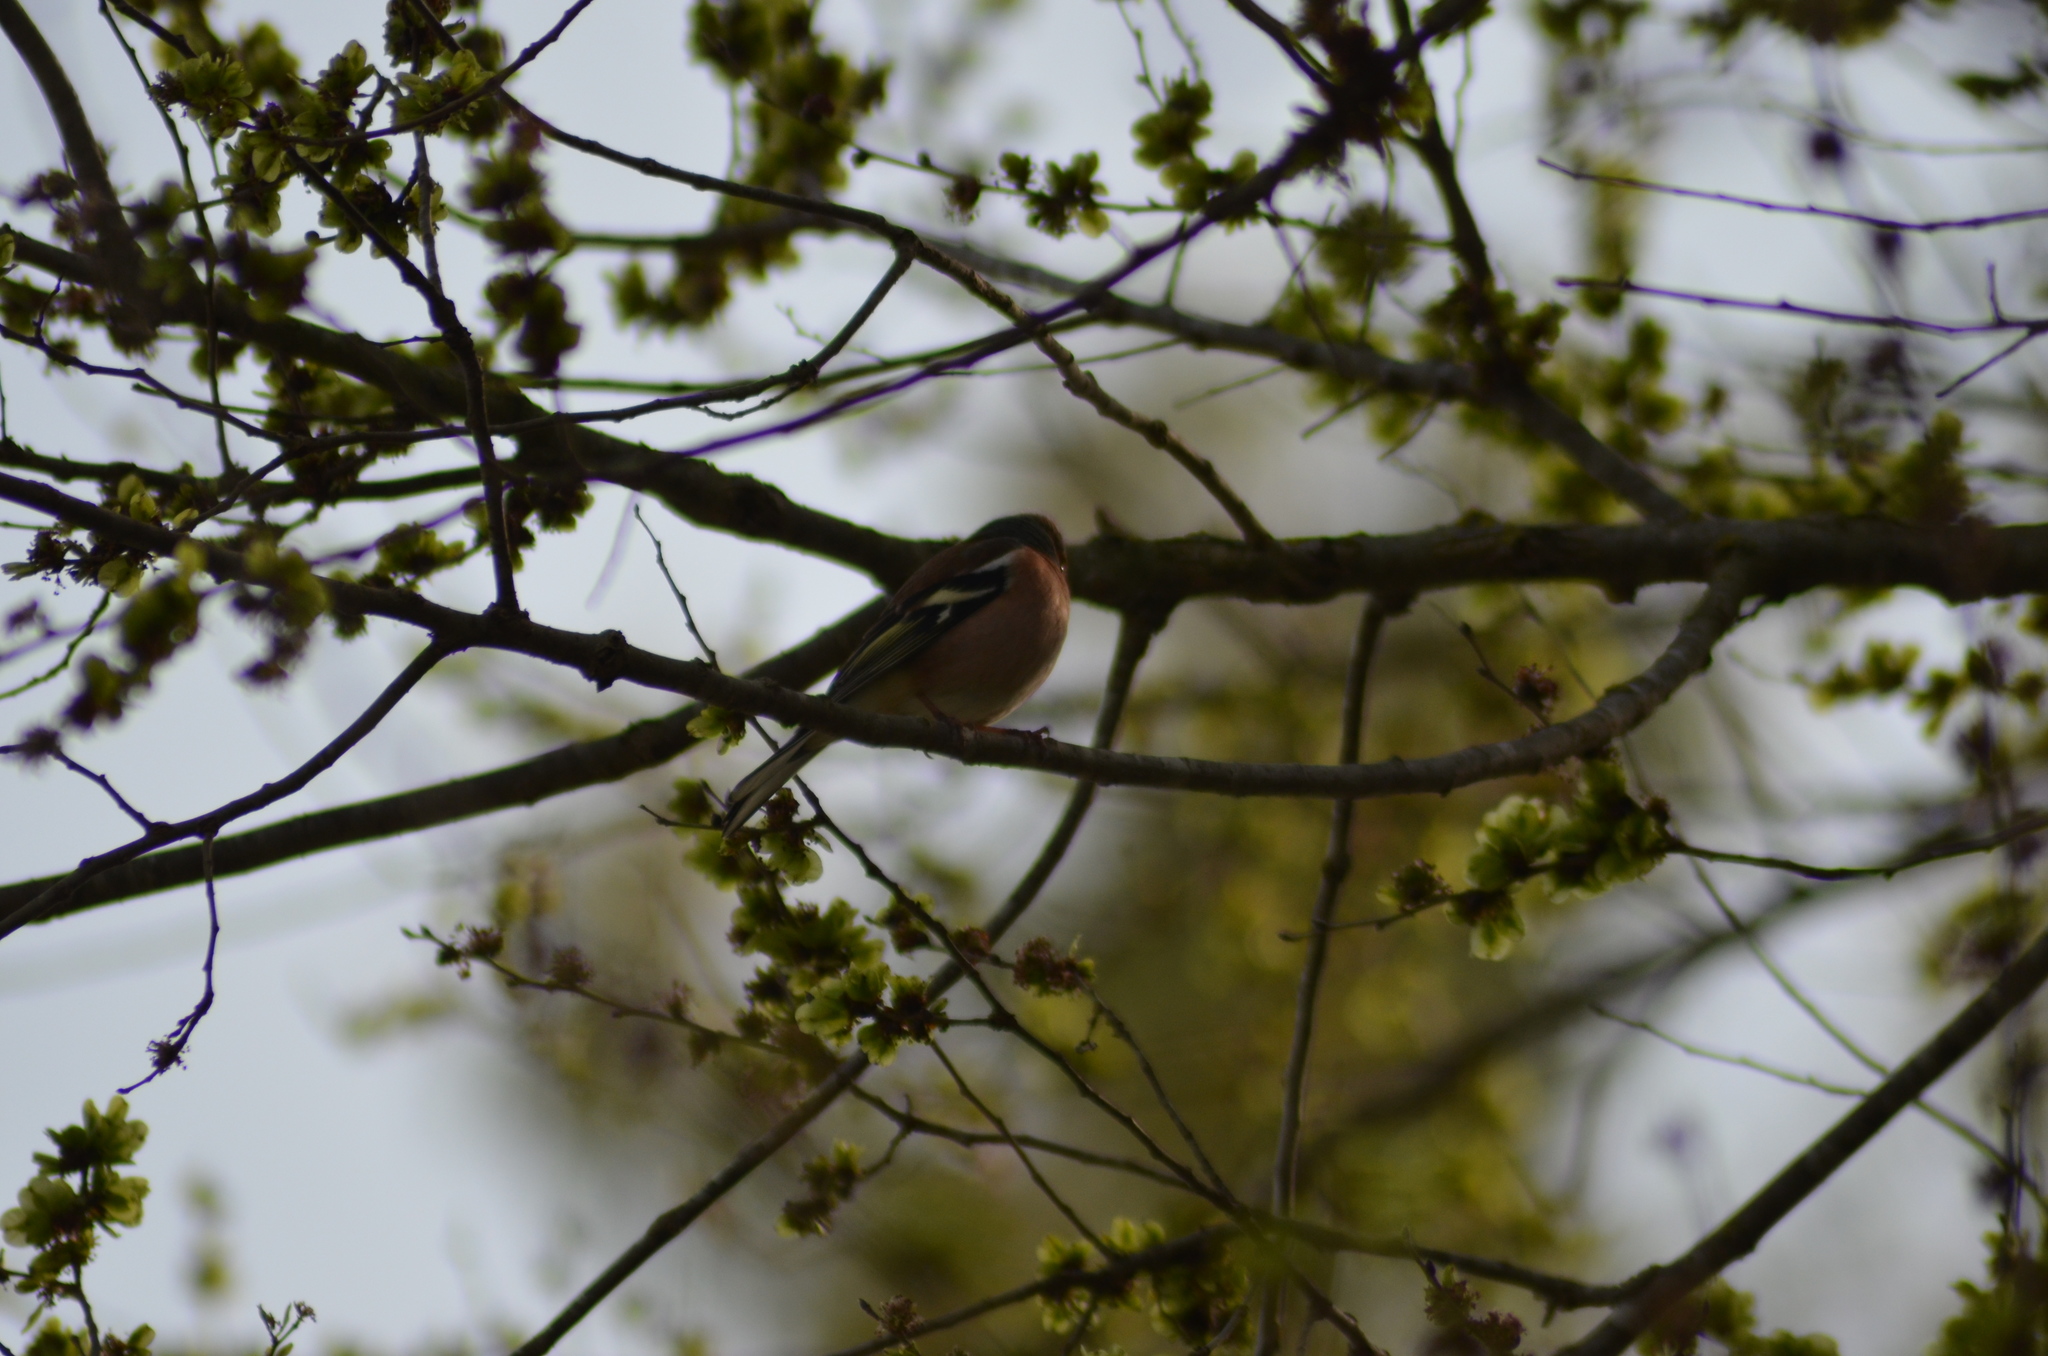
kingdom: Animalia
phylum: Chordata
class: Aves
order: Passeriformes
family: Fringillidae
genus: Fringilla
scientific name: Fringilla coelebs
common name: Common chaffinch
